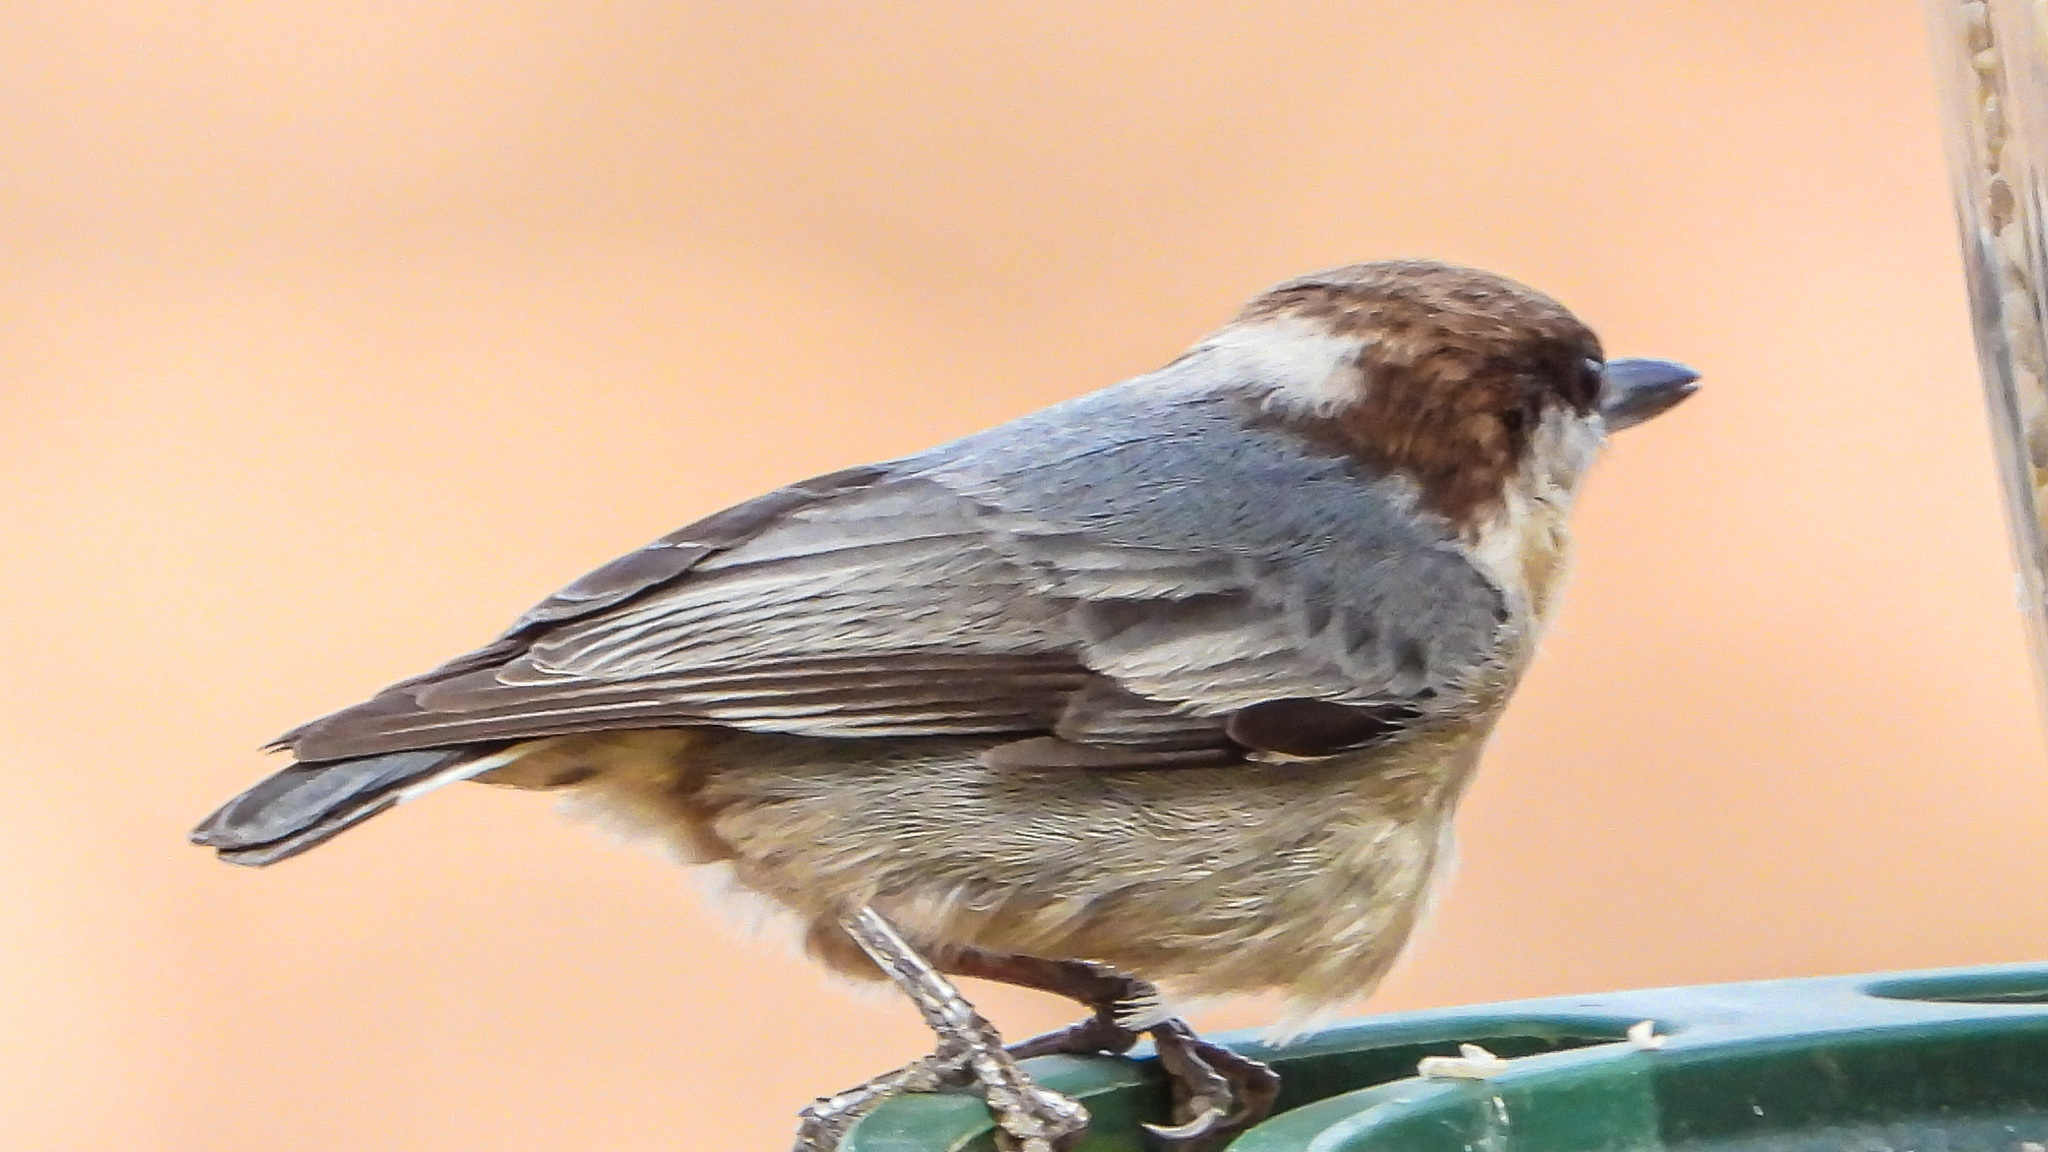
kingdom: Animalia
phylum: Chordata
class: Aves
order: Passeriformes
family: Sittidae
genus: Sitta
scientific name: Sitta pusilla
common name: Brown-headed nuthatch
